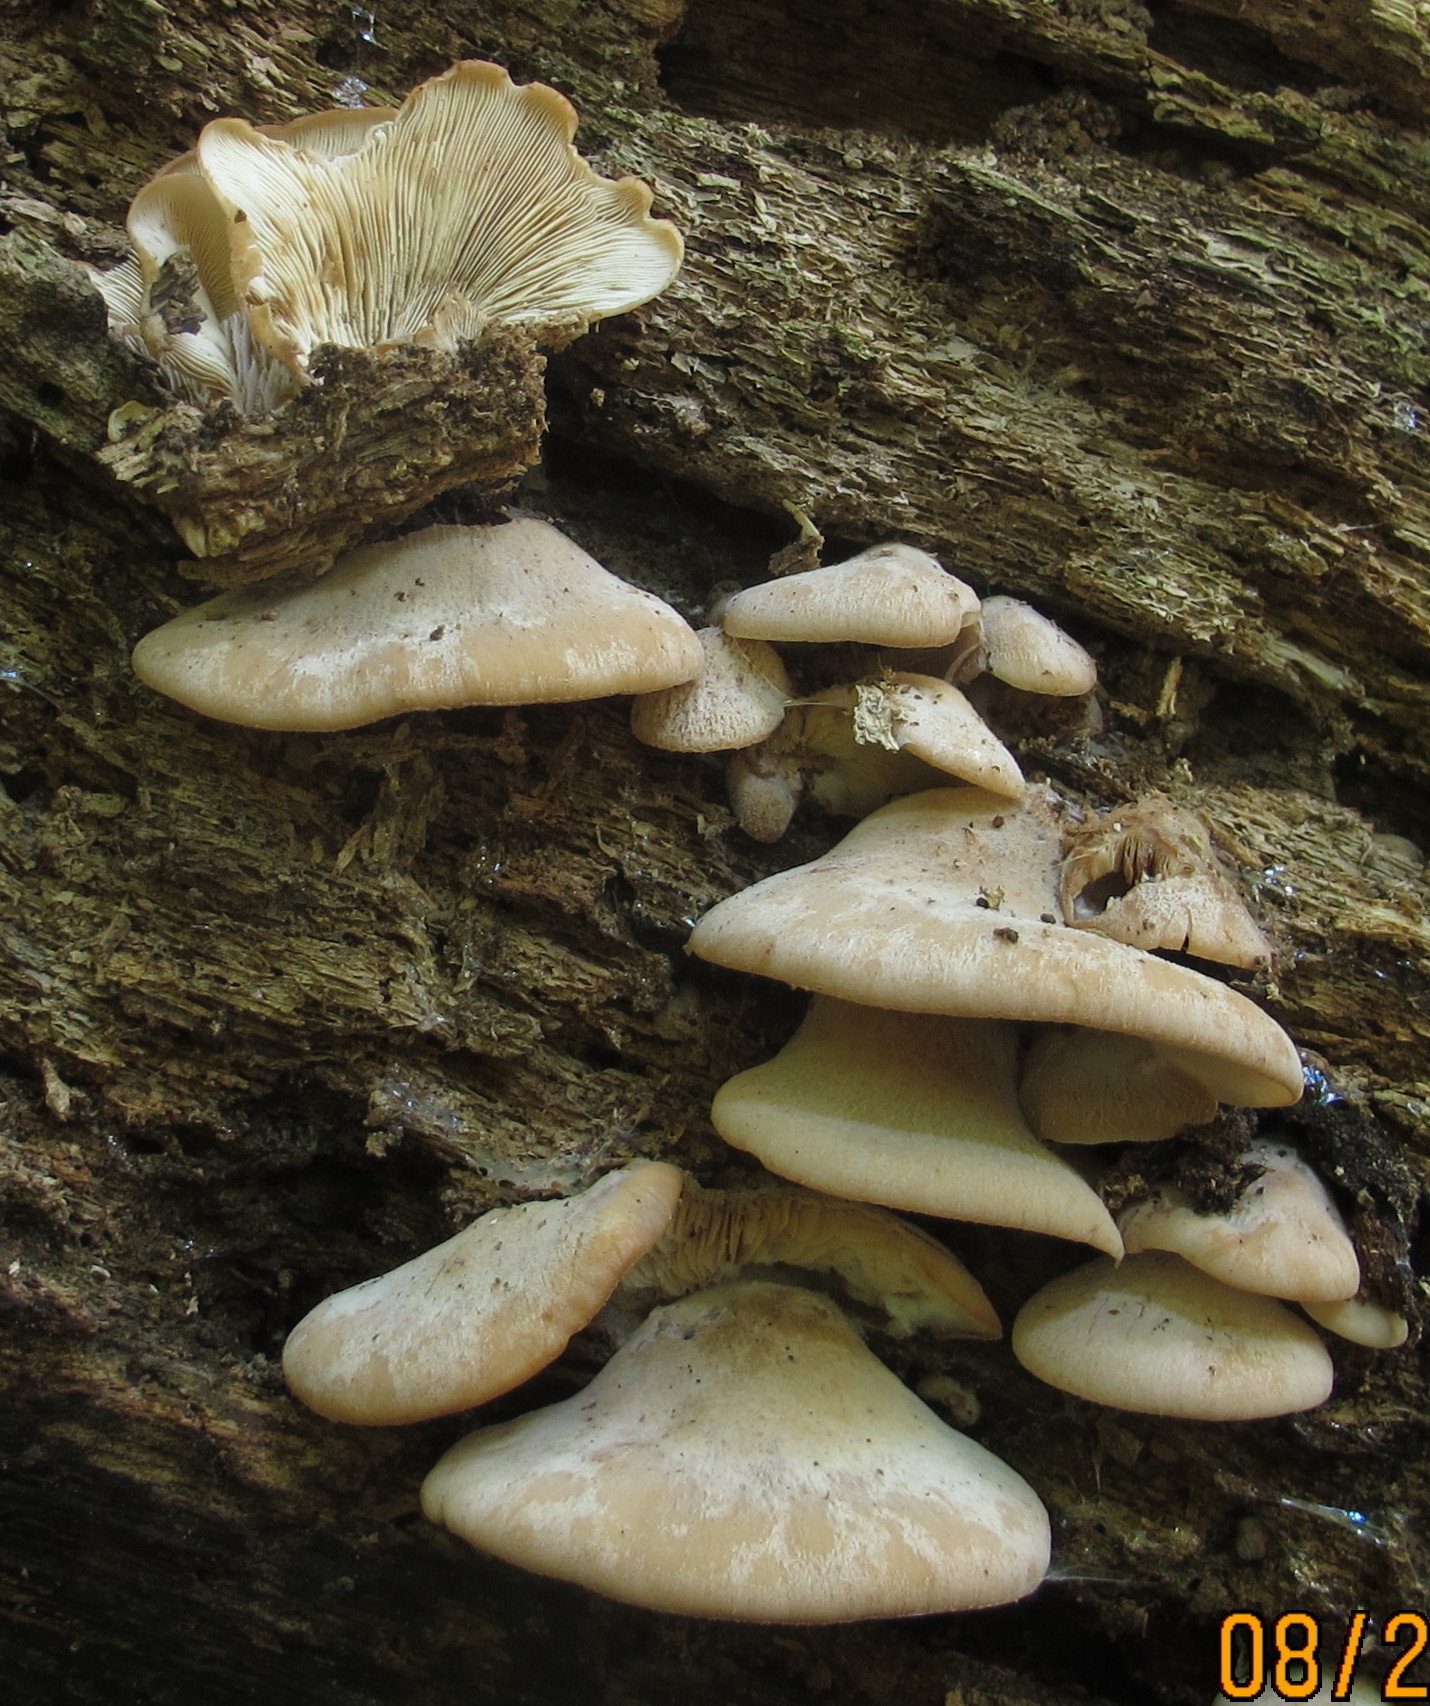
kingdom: Fungi
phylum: Basidiomycota
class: Agaricomycetes
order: Russulales
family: Auriscalpiaceae
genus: Lentinellus
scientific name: Lentinellus ursinus
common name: Bear lentinus
